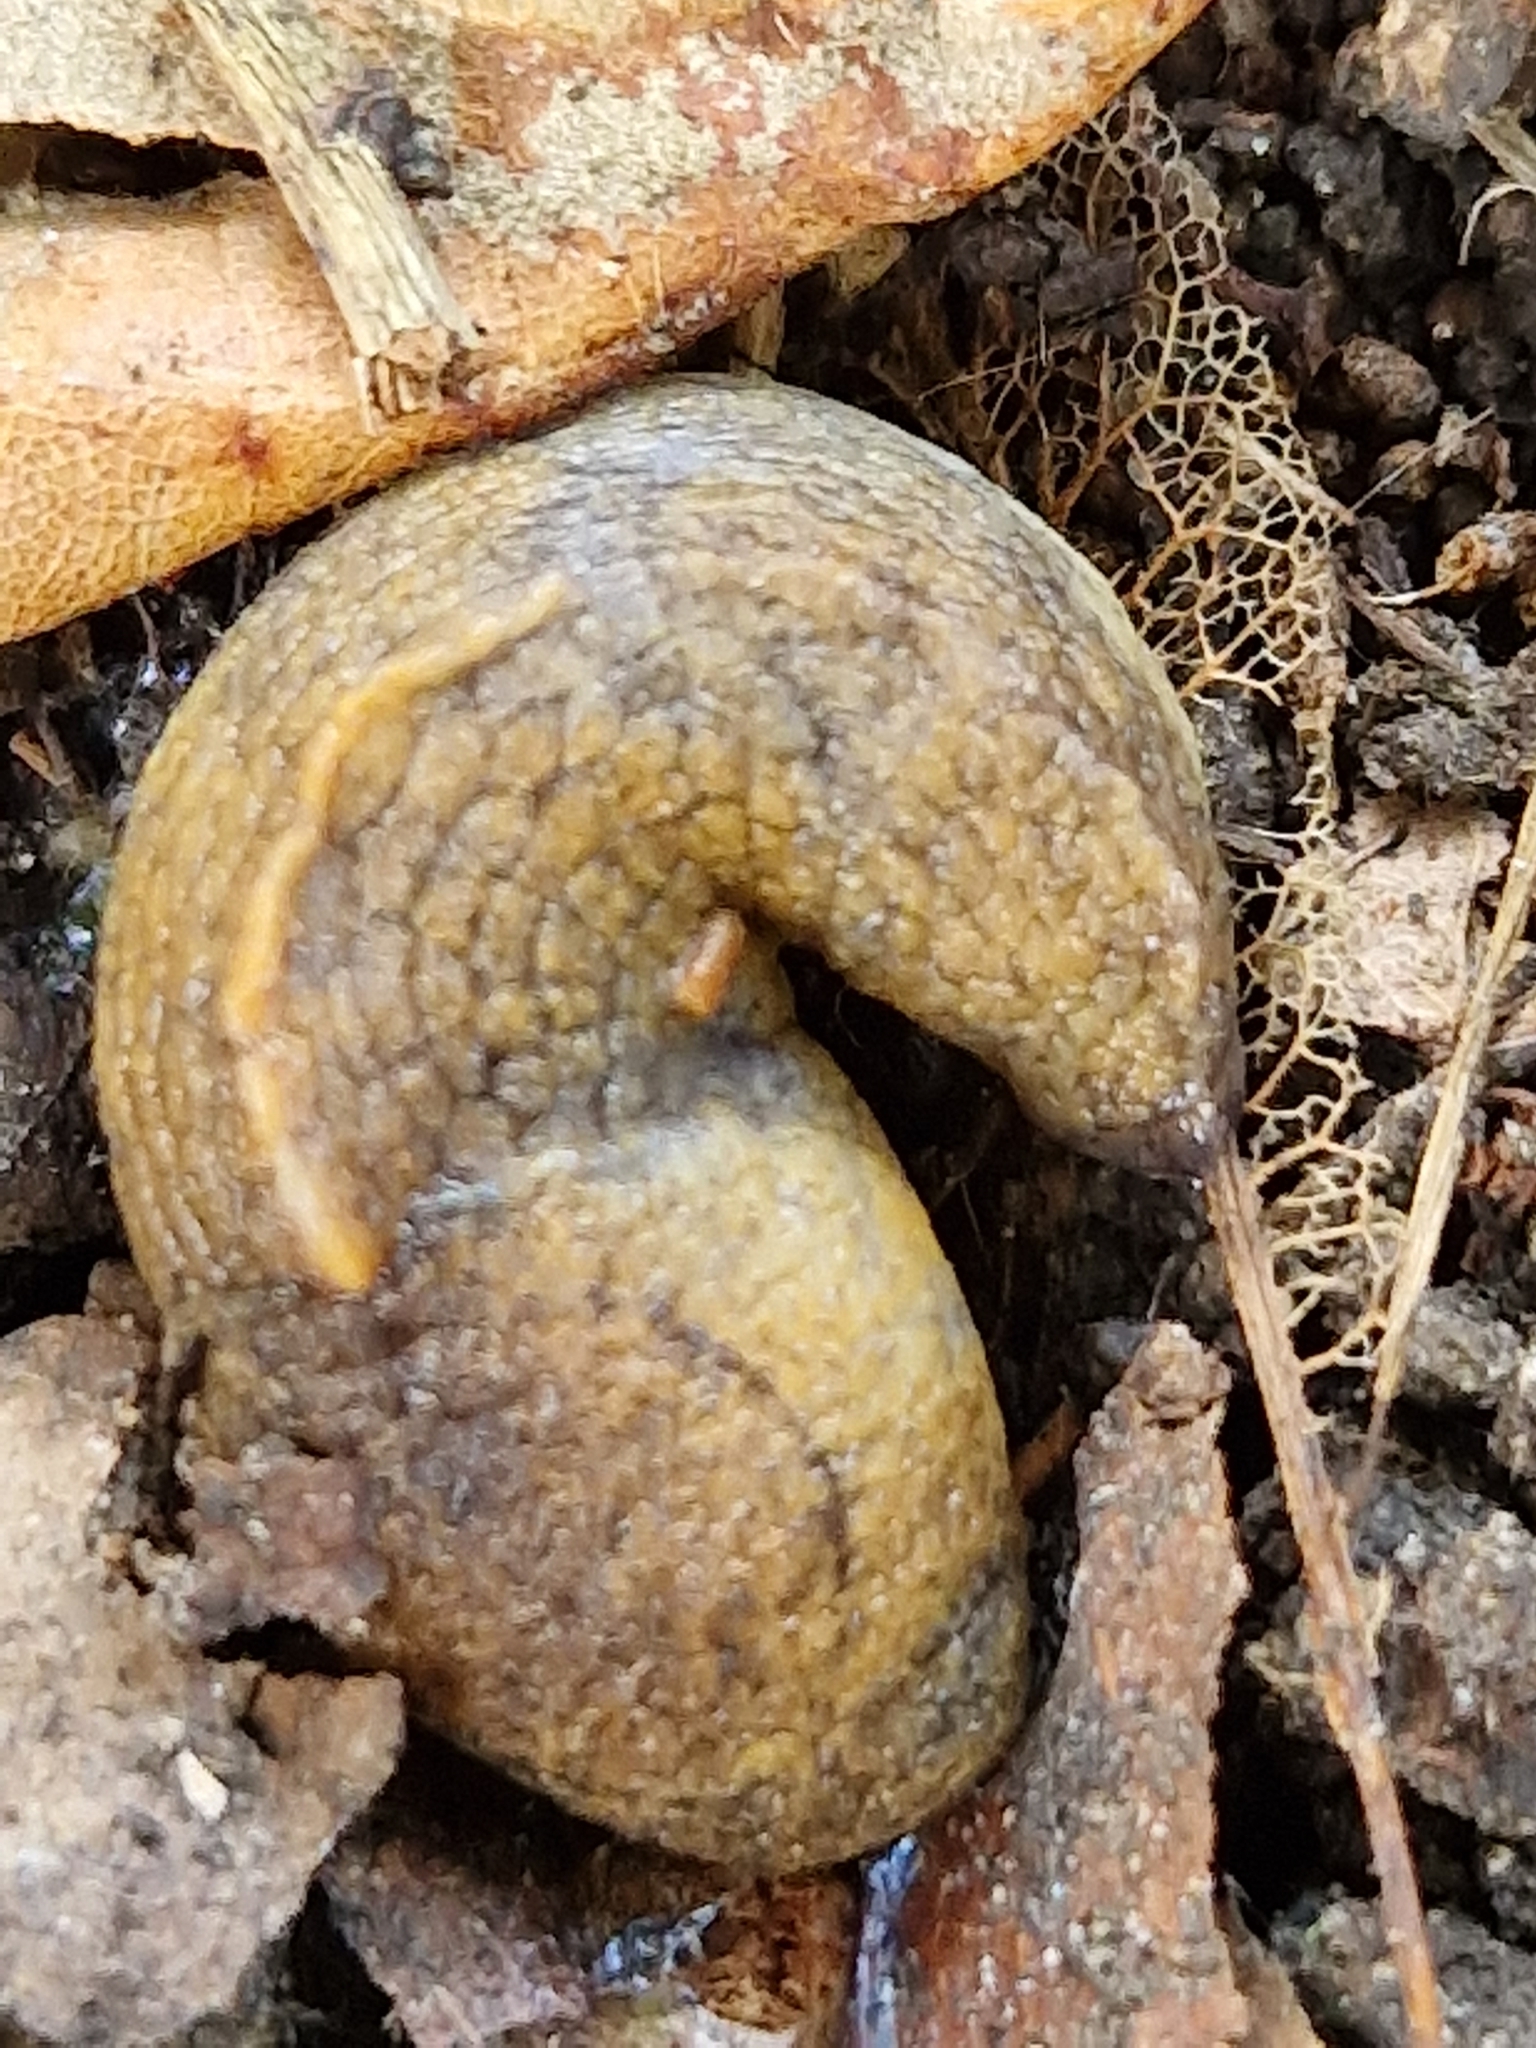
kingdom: Animalia
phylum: Mollusca
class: Gastropoda
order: Stylommatophora
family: Milacidae
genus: Tandonia
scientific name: Tandonia sowerbyi
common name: Keeled slug
